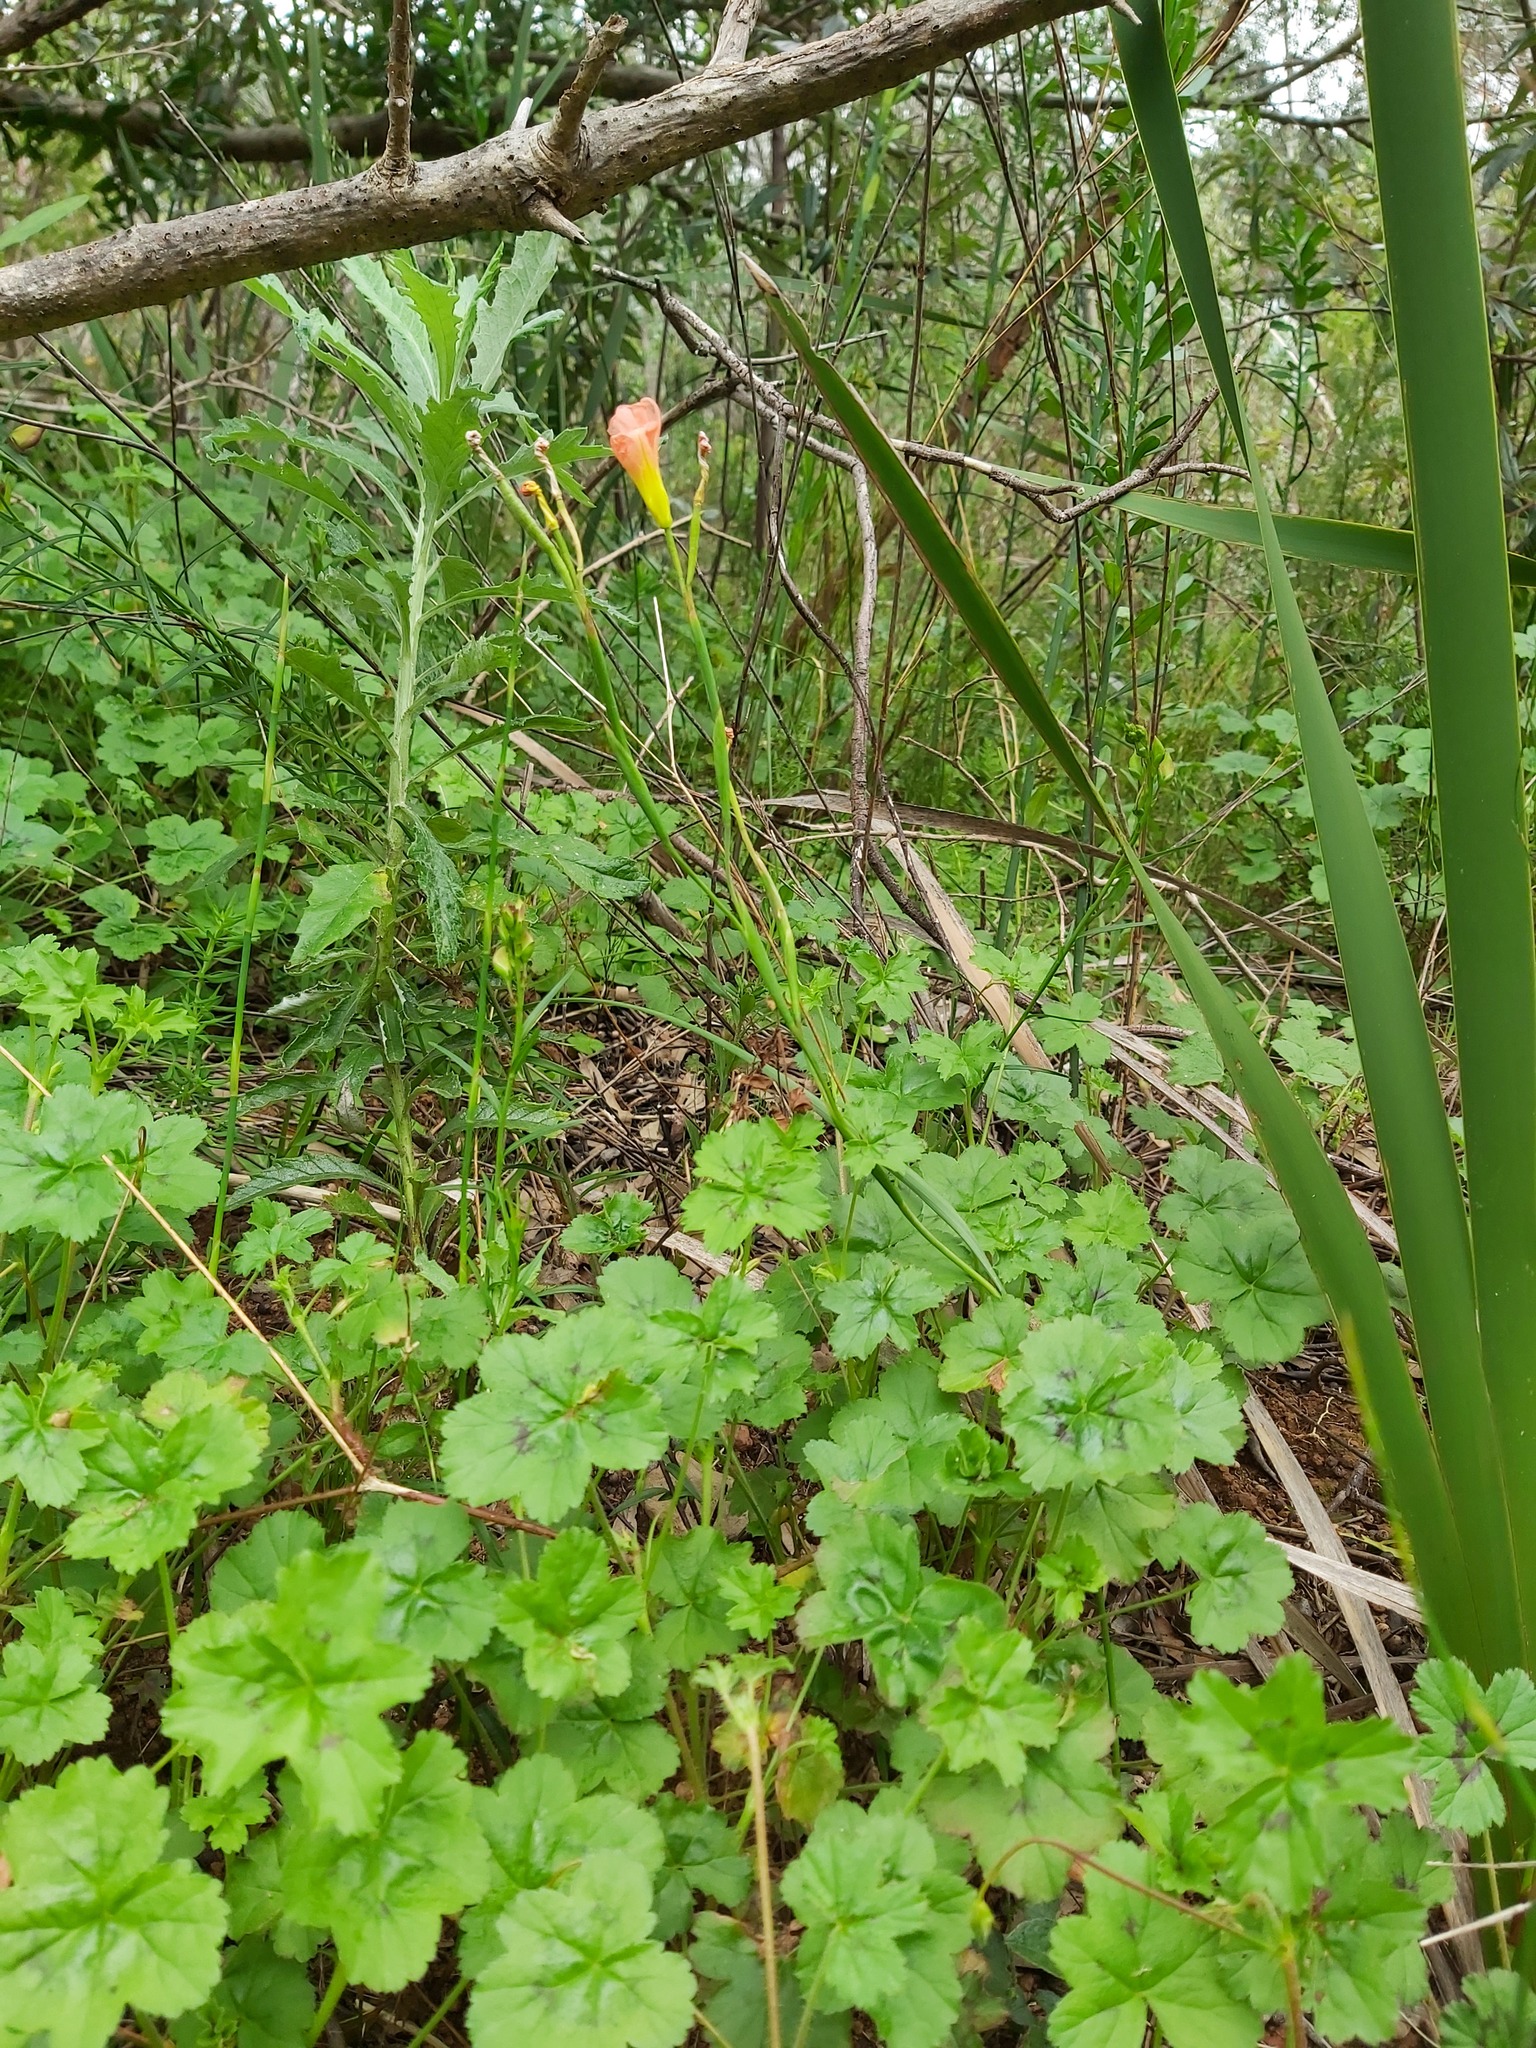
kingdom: Plantae
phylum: Tracheophyta
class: Liliopsida
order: Asparagales
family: Iridaceae
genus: Moraea
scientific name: Moraea miniata
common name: Two-leaf cape-tulip
